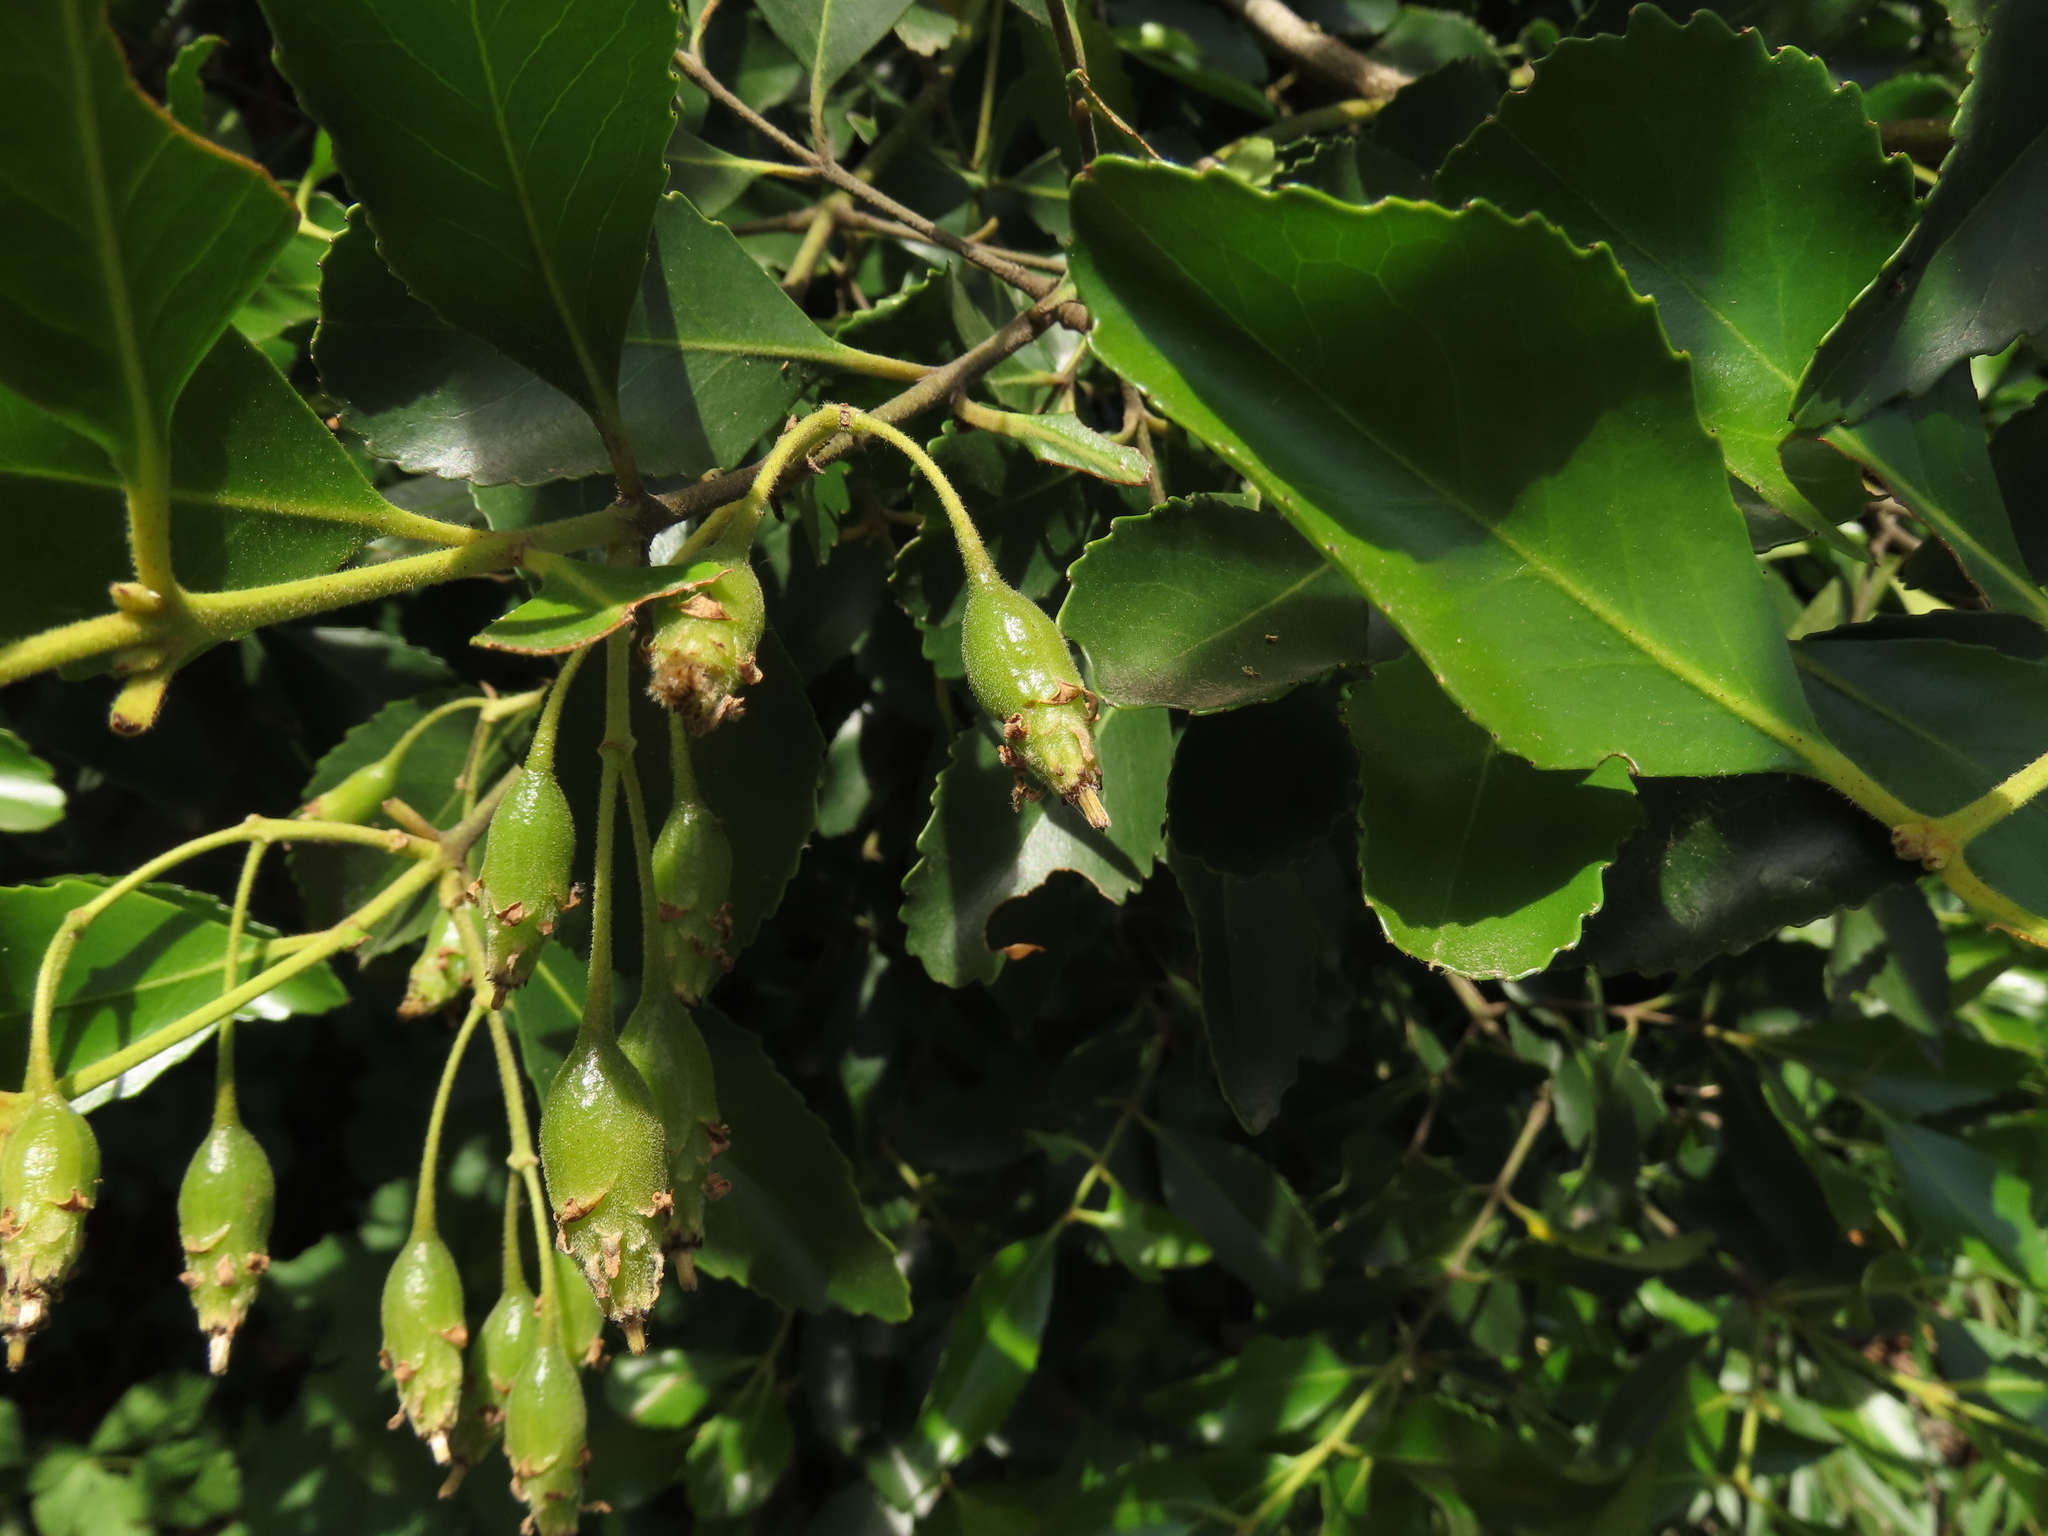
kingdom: Plantae
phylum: Tracheophyta
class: Magnoliopsida
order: Laurales
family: Atherospermataceae
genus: Laurelia
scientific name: Laurelia sempervirens
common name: Chilean laurel
